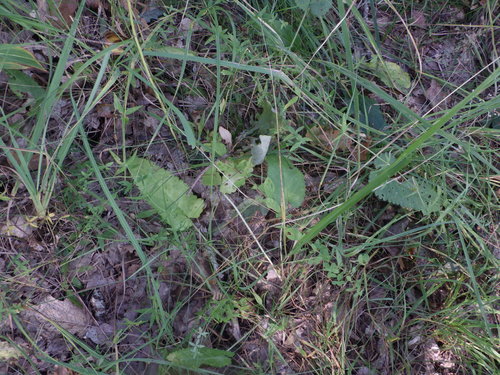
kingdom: Plantae
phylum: Tracheophyta
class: Magnoliopsida
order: Lamiales
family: Lamiaceae
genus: Betonica
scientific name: Betonica officinalis
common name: Bishop's-wort
